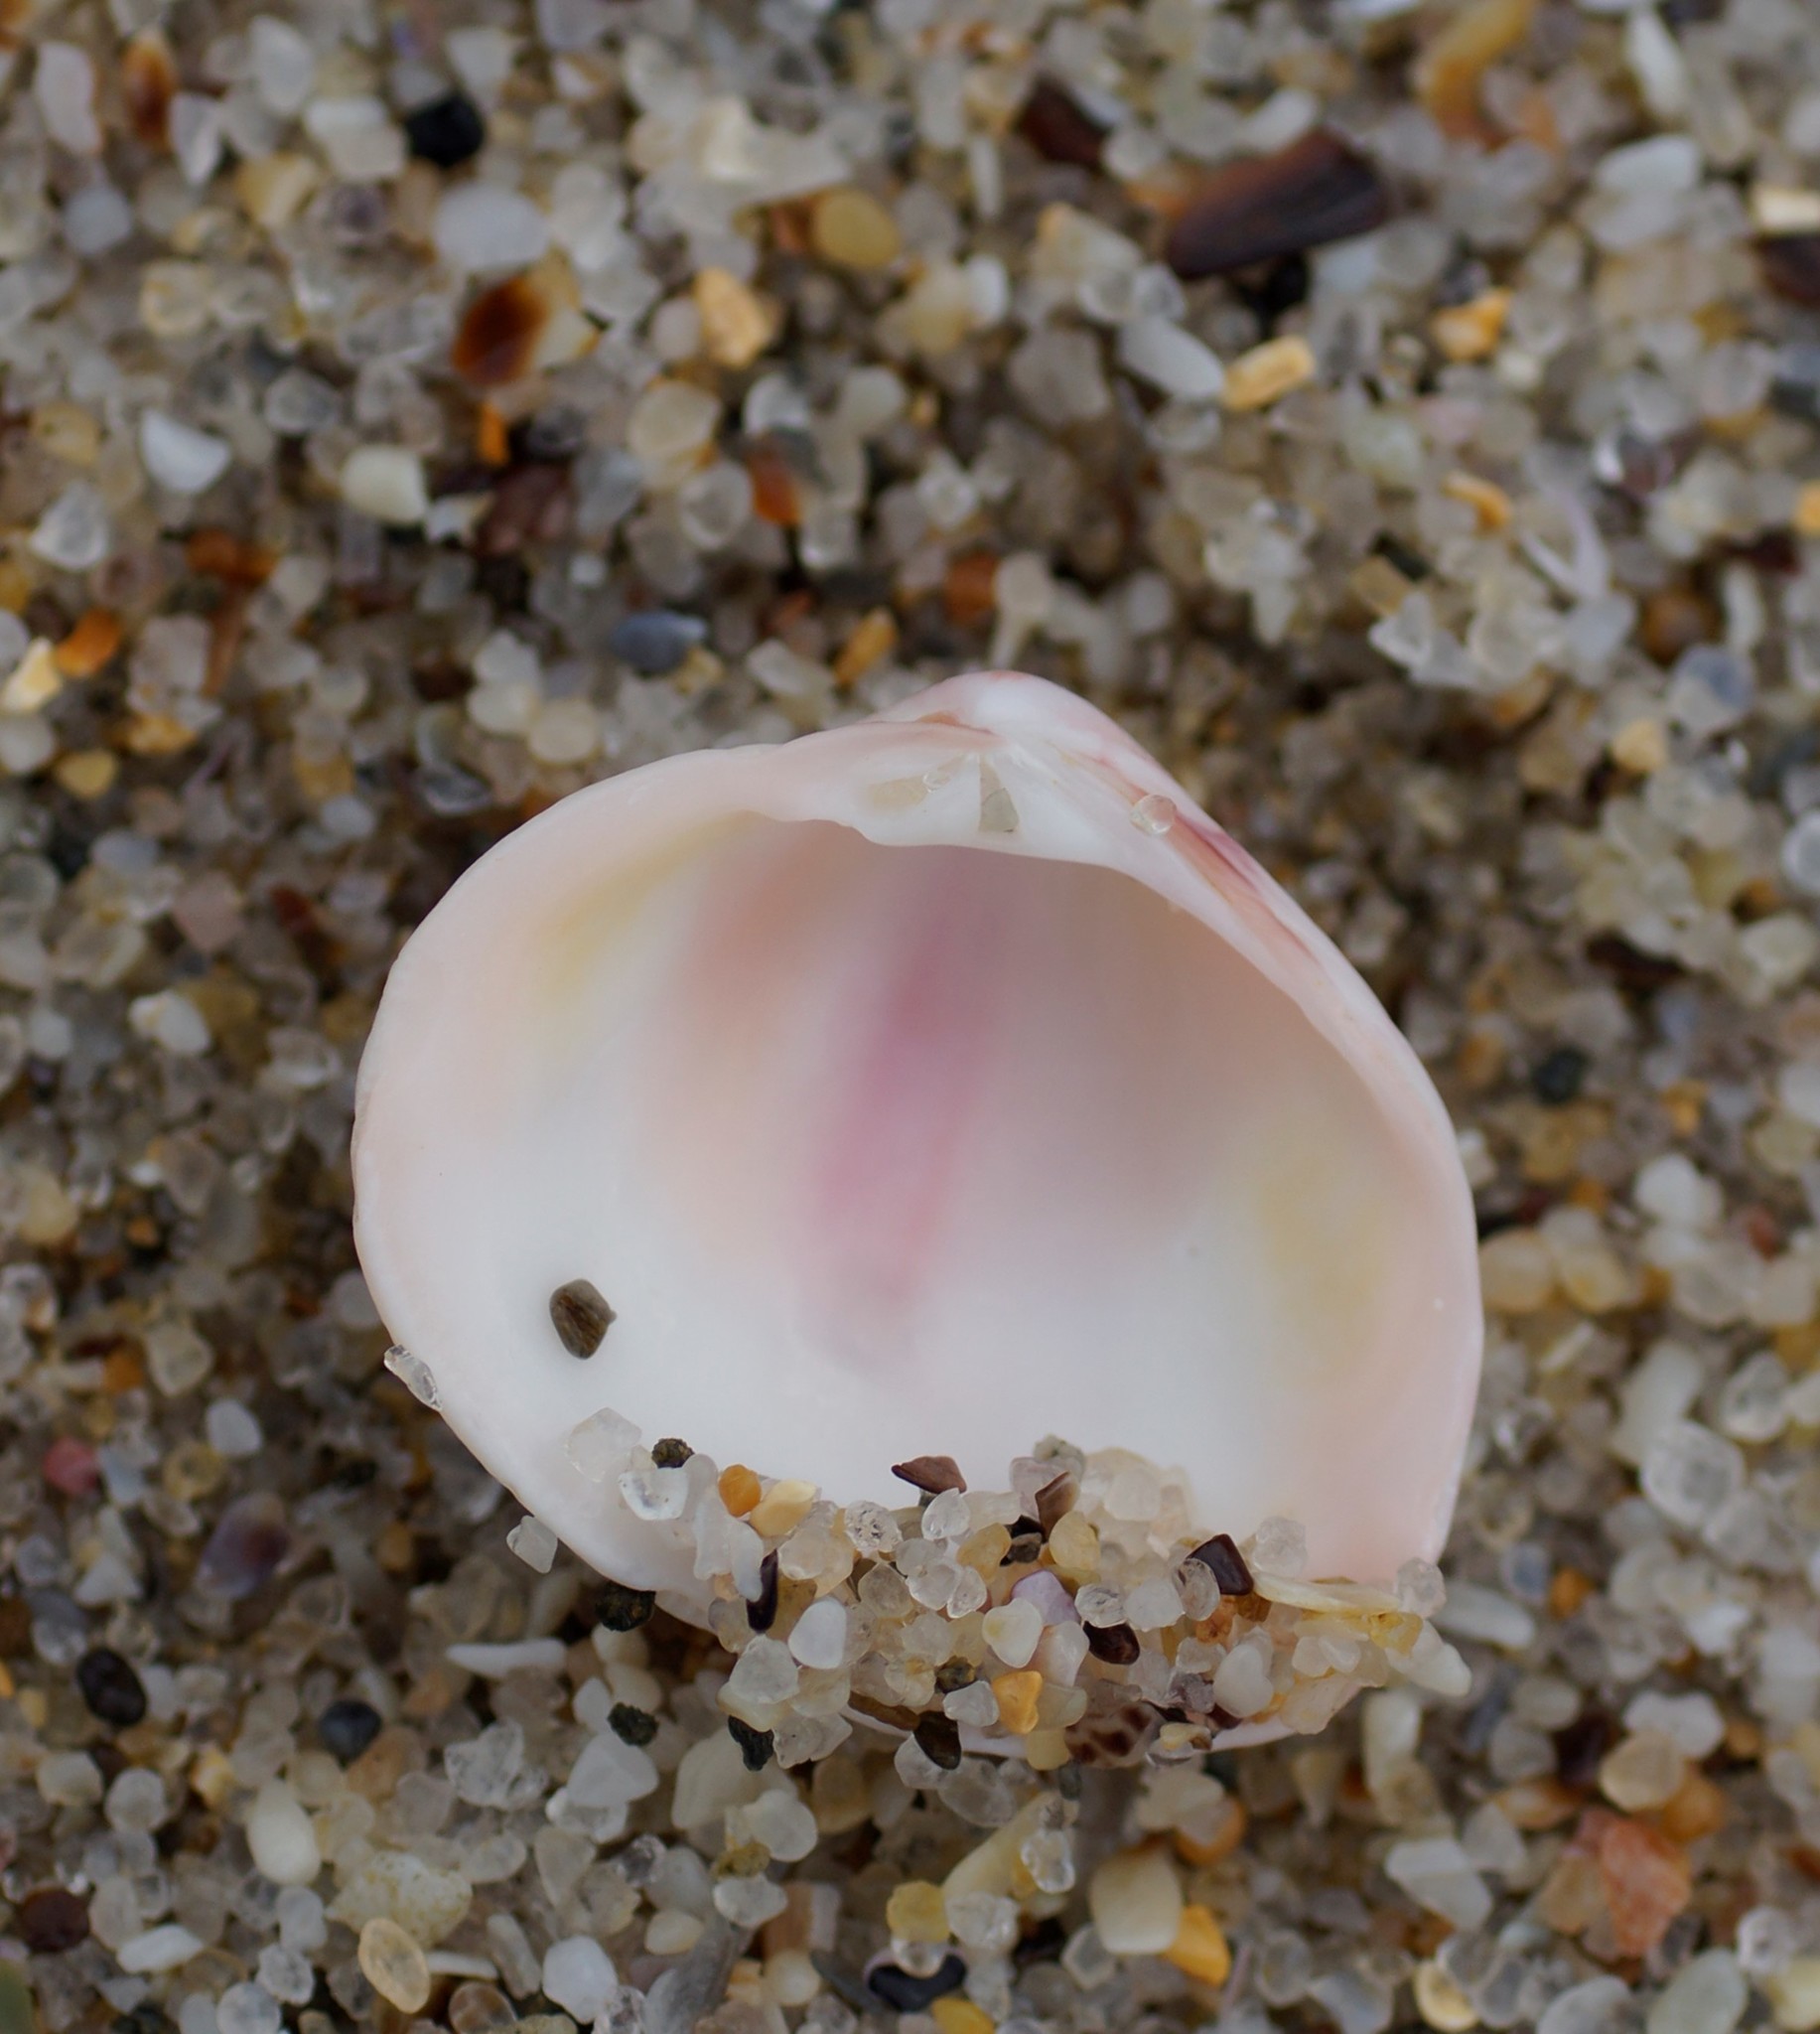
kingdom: Animalia
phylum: Mollusca
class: Bivalvia
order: Venerida
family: Veneridae
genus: Tawera
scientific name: Tawera lagopus
